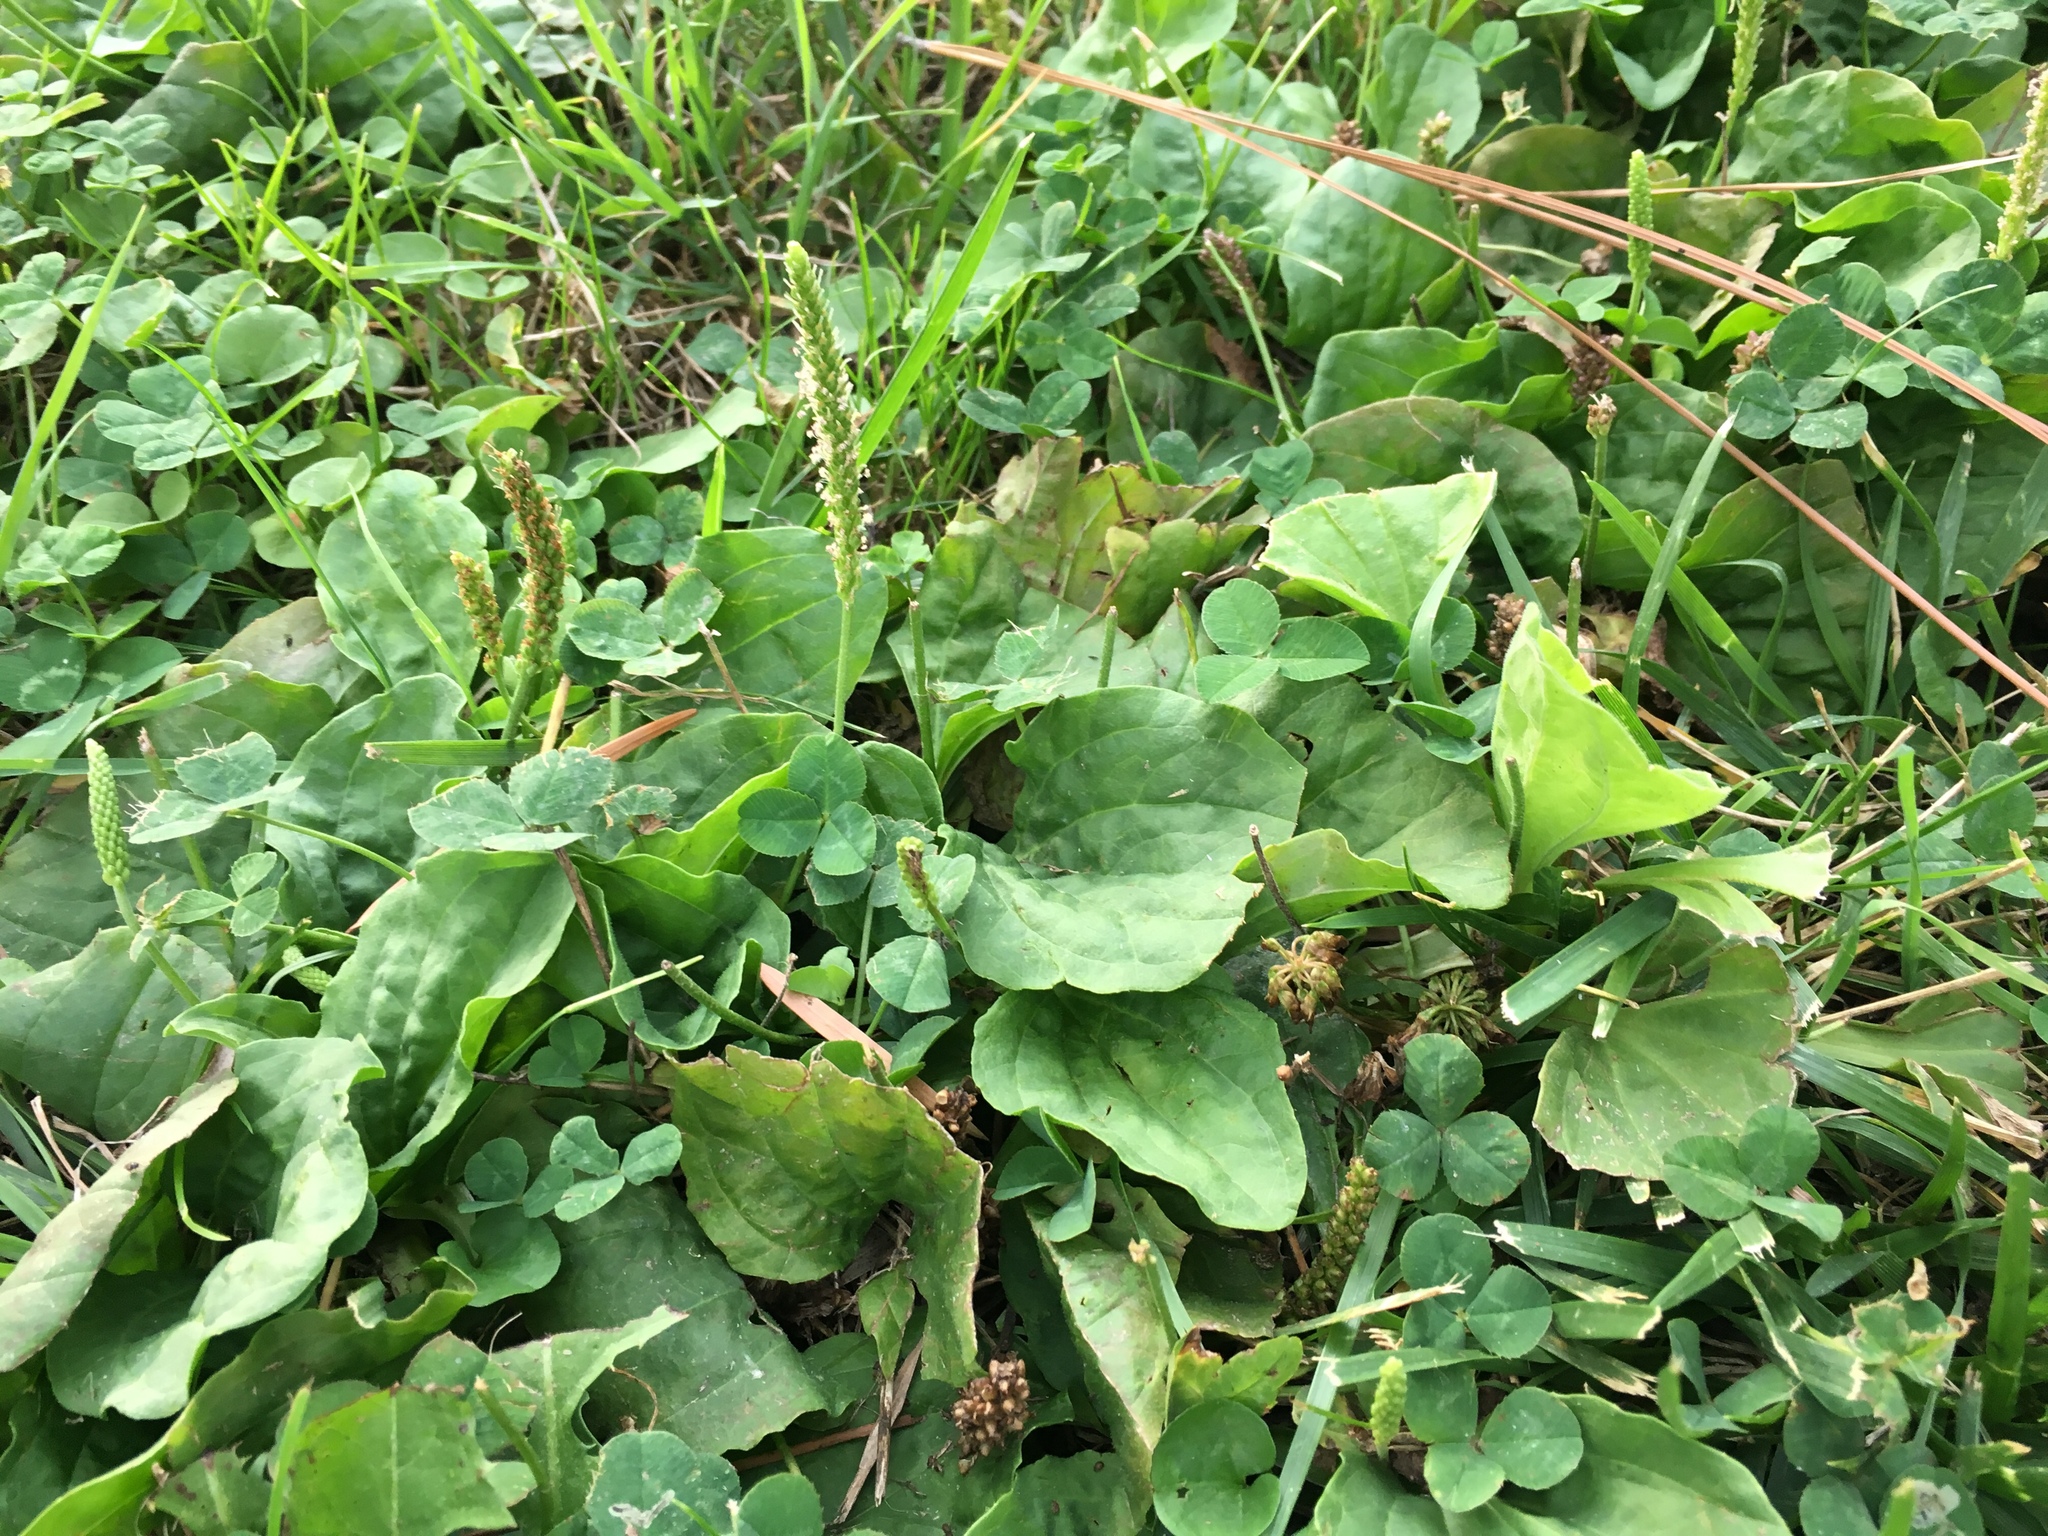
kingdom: Plantae
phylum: Tracheophyta
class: Magnoliopsida
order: Lamiales
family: Plantaginaceae
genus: Plantago
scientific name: Plantago major
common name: Common plantain
